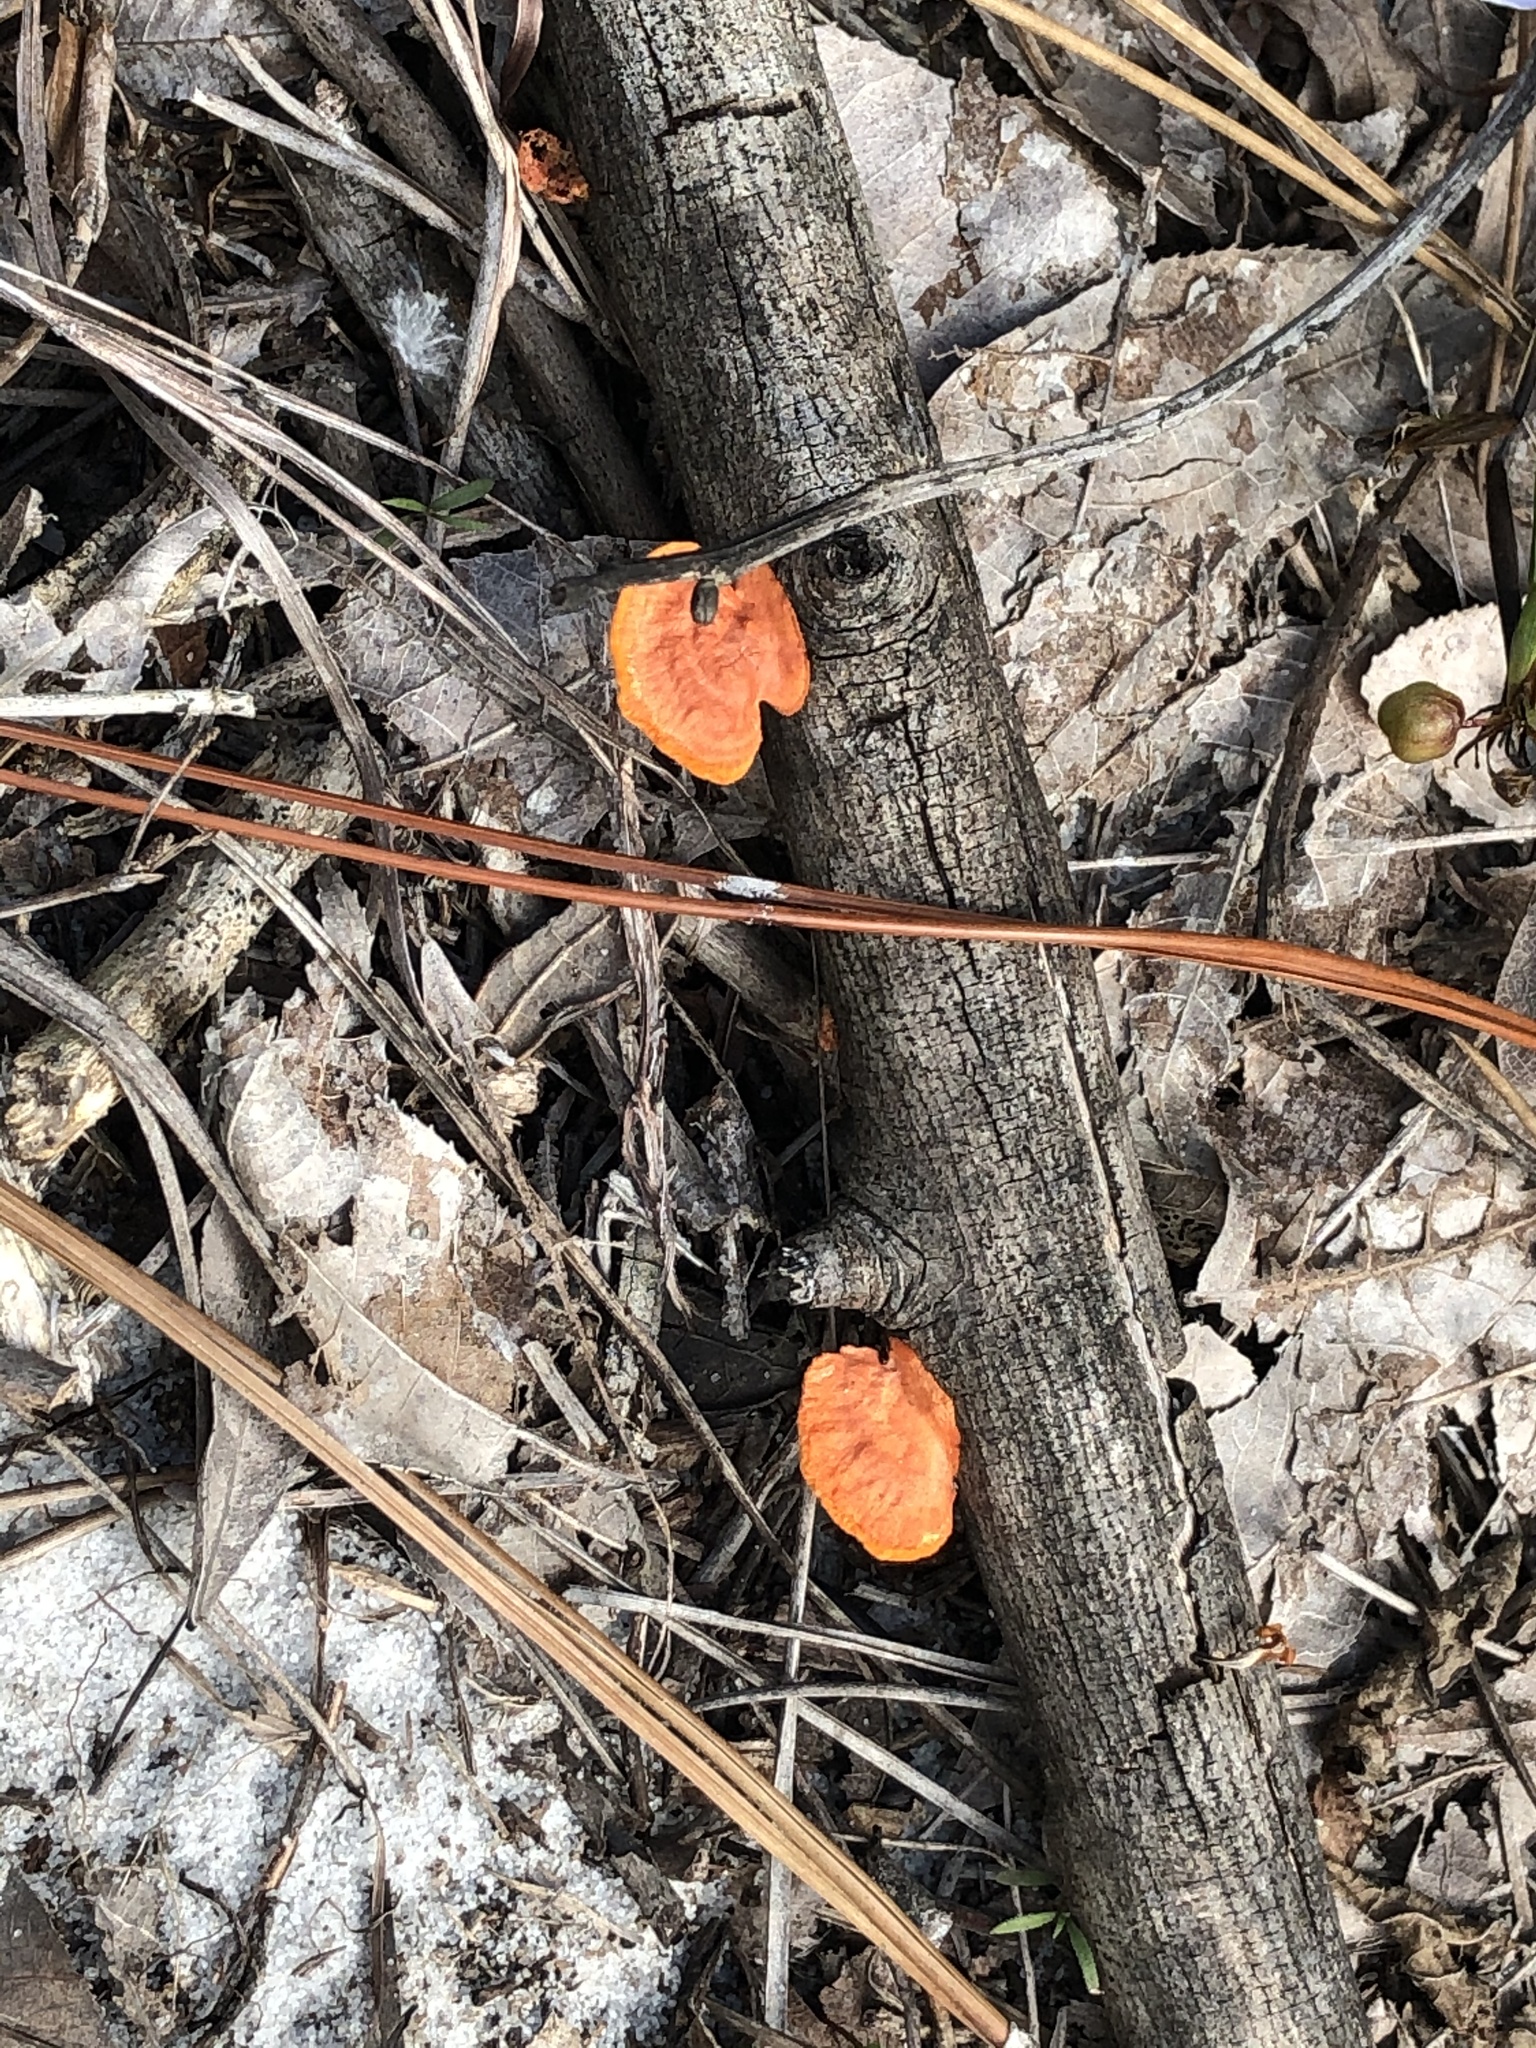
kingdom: Fungi
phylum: Basidiomycota
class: Agaricomycetes
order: Polyporales
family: Polyporaceae
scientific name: Polyporaceae
